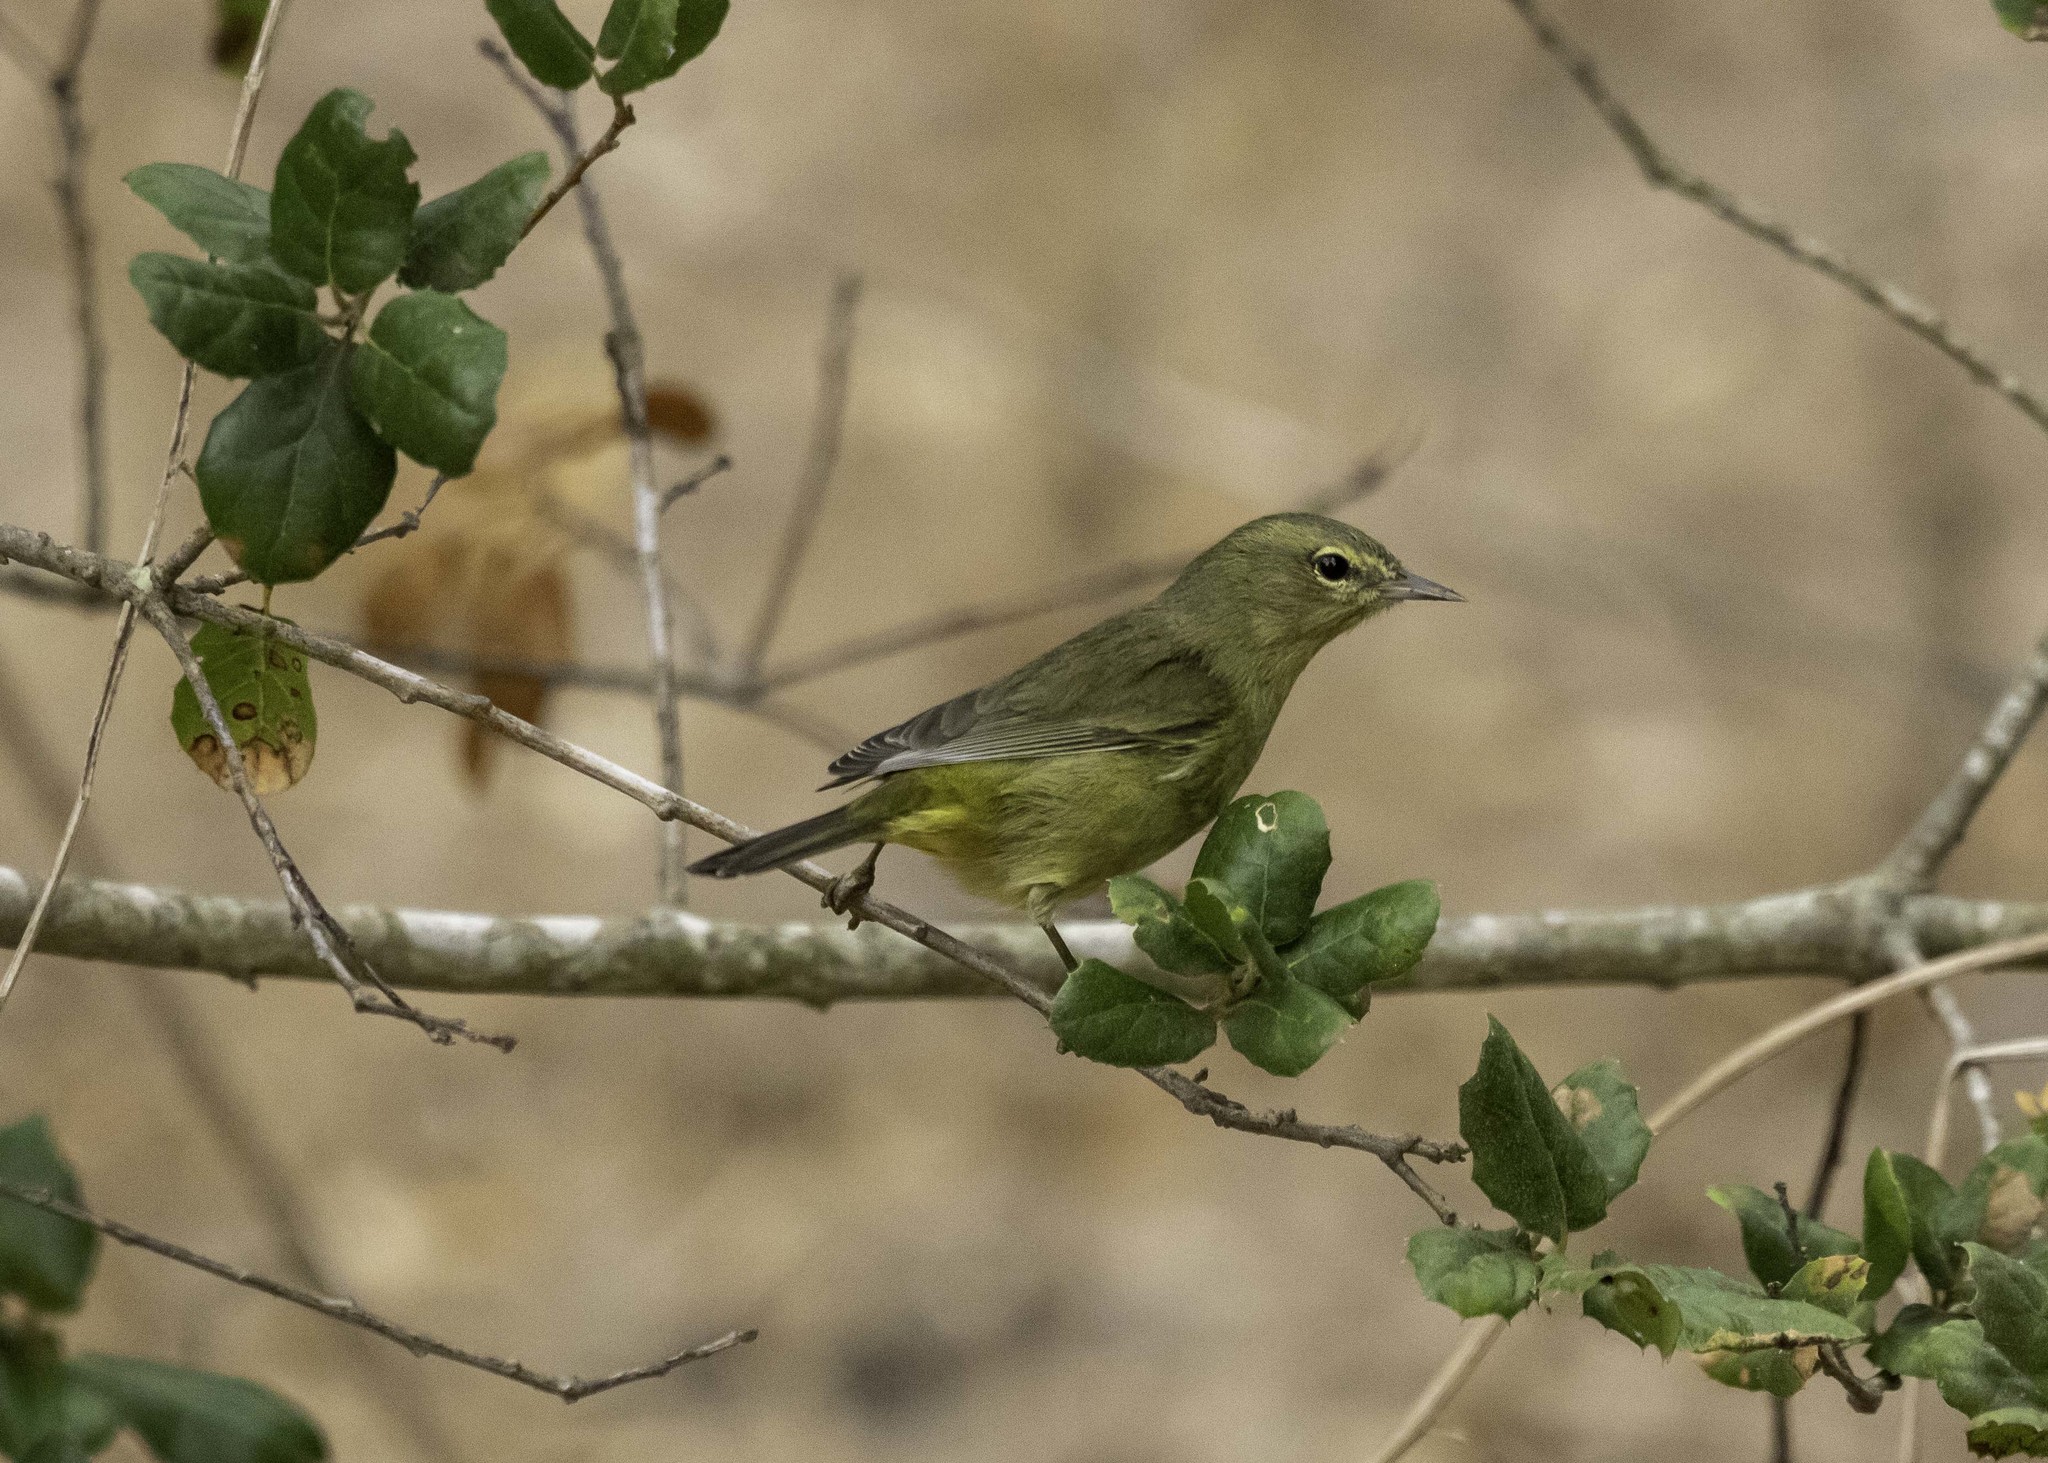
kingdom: Animalia
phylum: Chordata
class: Aves
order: Passeriformes
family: Parulidae
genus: Leiothlypis
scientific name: Leiothlypis celata
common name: Orange-crowned warbler
